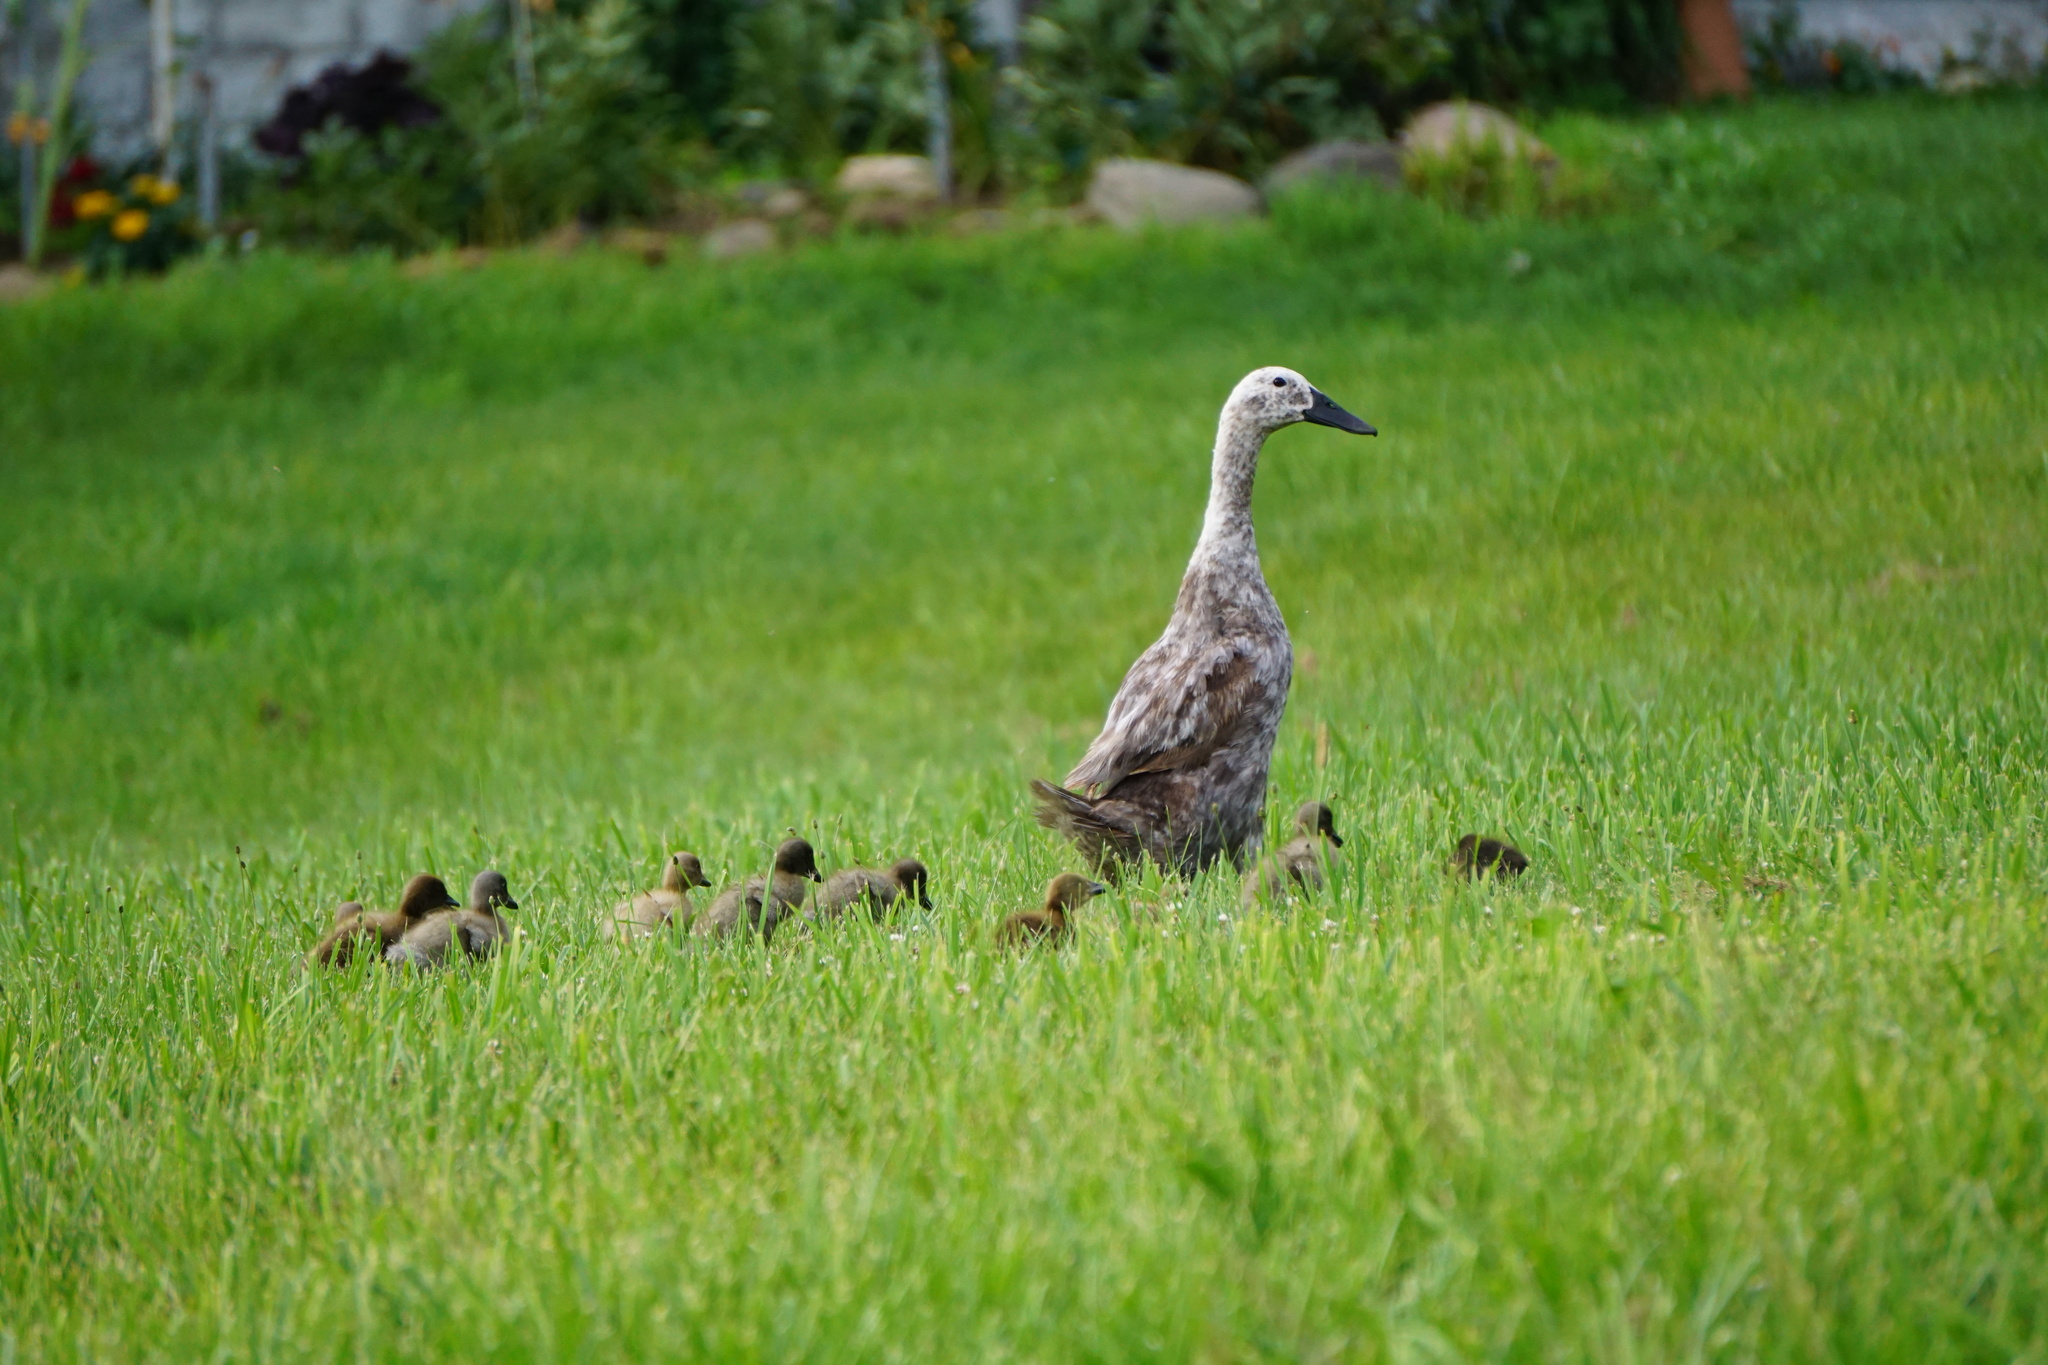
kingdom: Animalia
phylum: Chordata
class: Aves
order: Anseriformes
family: Anatidae
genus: Anas
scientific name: Anas platyrhynchos
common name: Mallard
